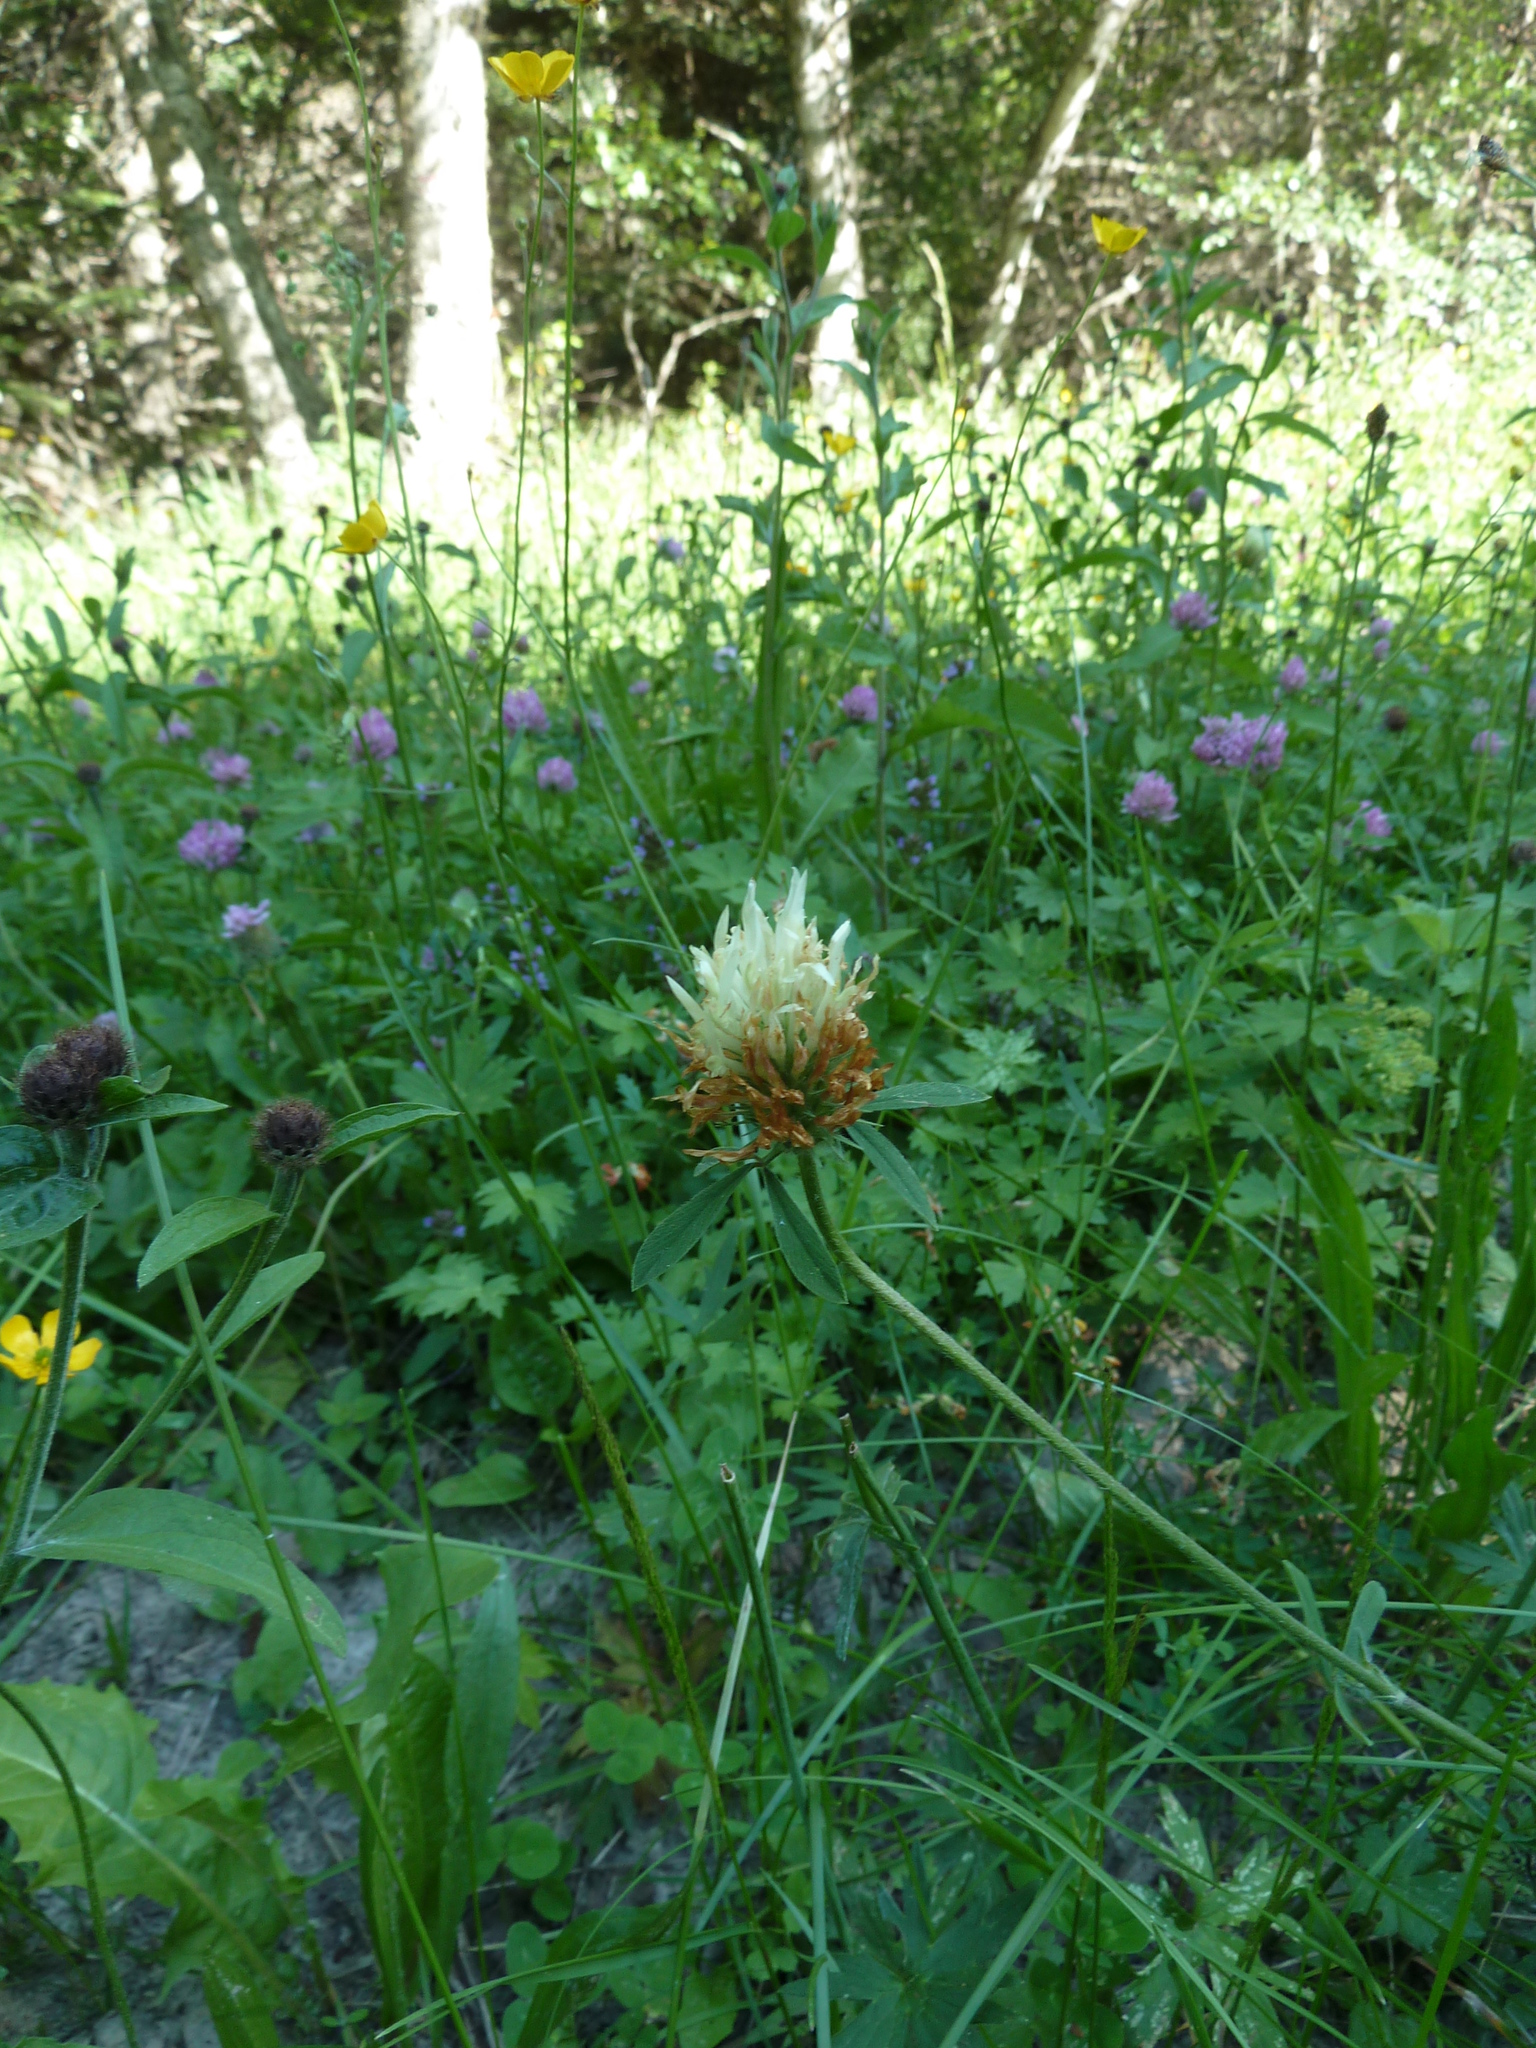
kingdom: Plantae
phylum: Tracheophyta
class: Magnoliopsida
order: Fabales
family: Fabaceae
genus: Trifolium
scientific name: Trifolium ochroleucon
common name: Sulphur clover
